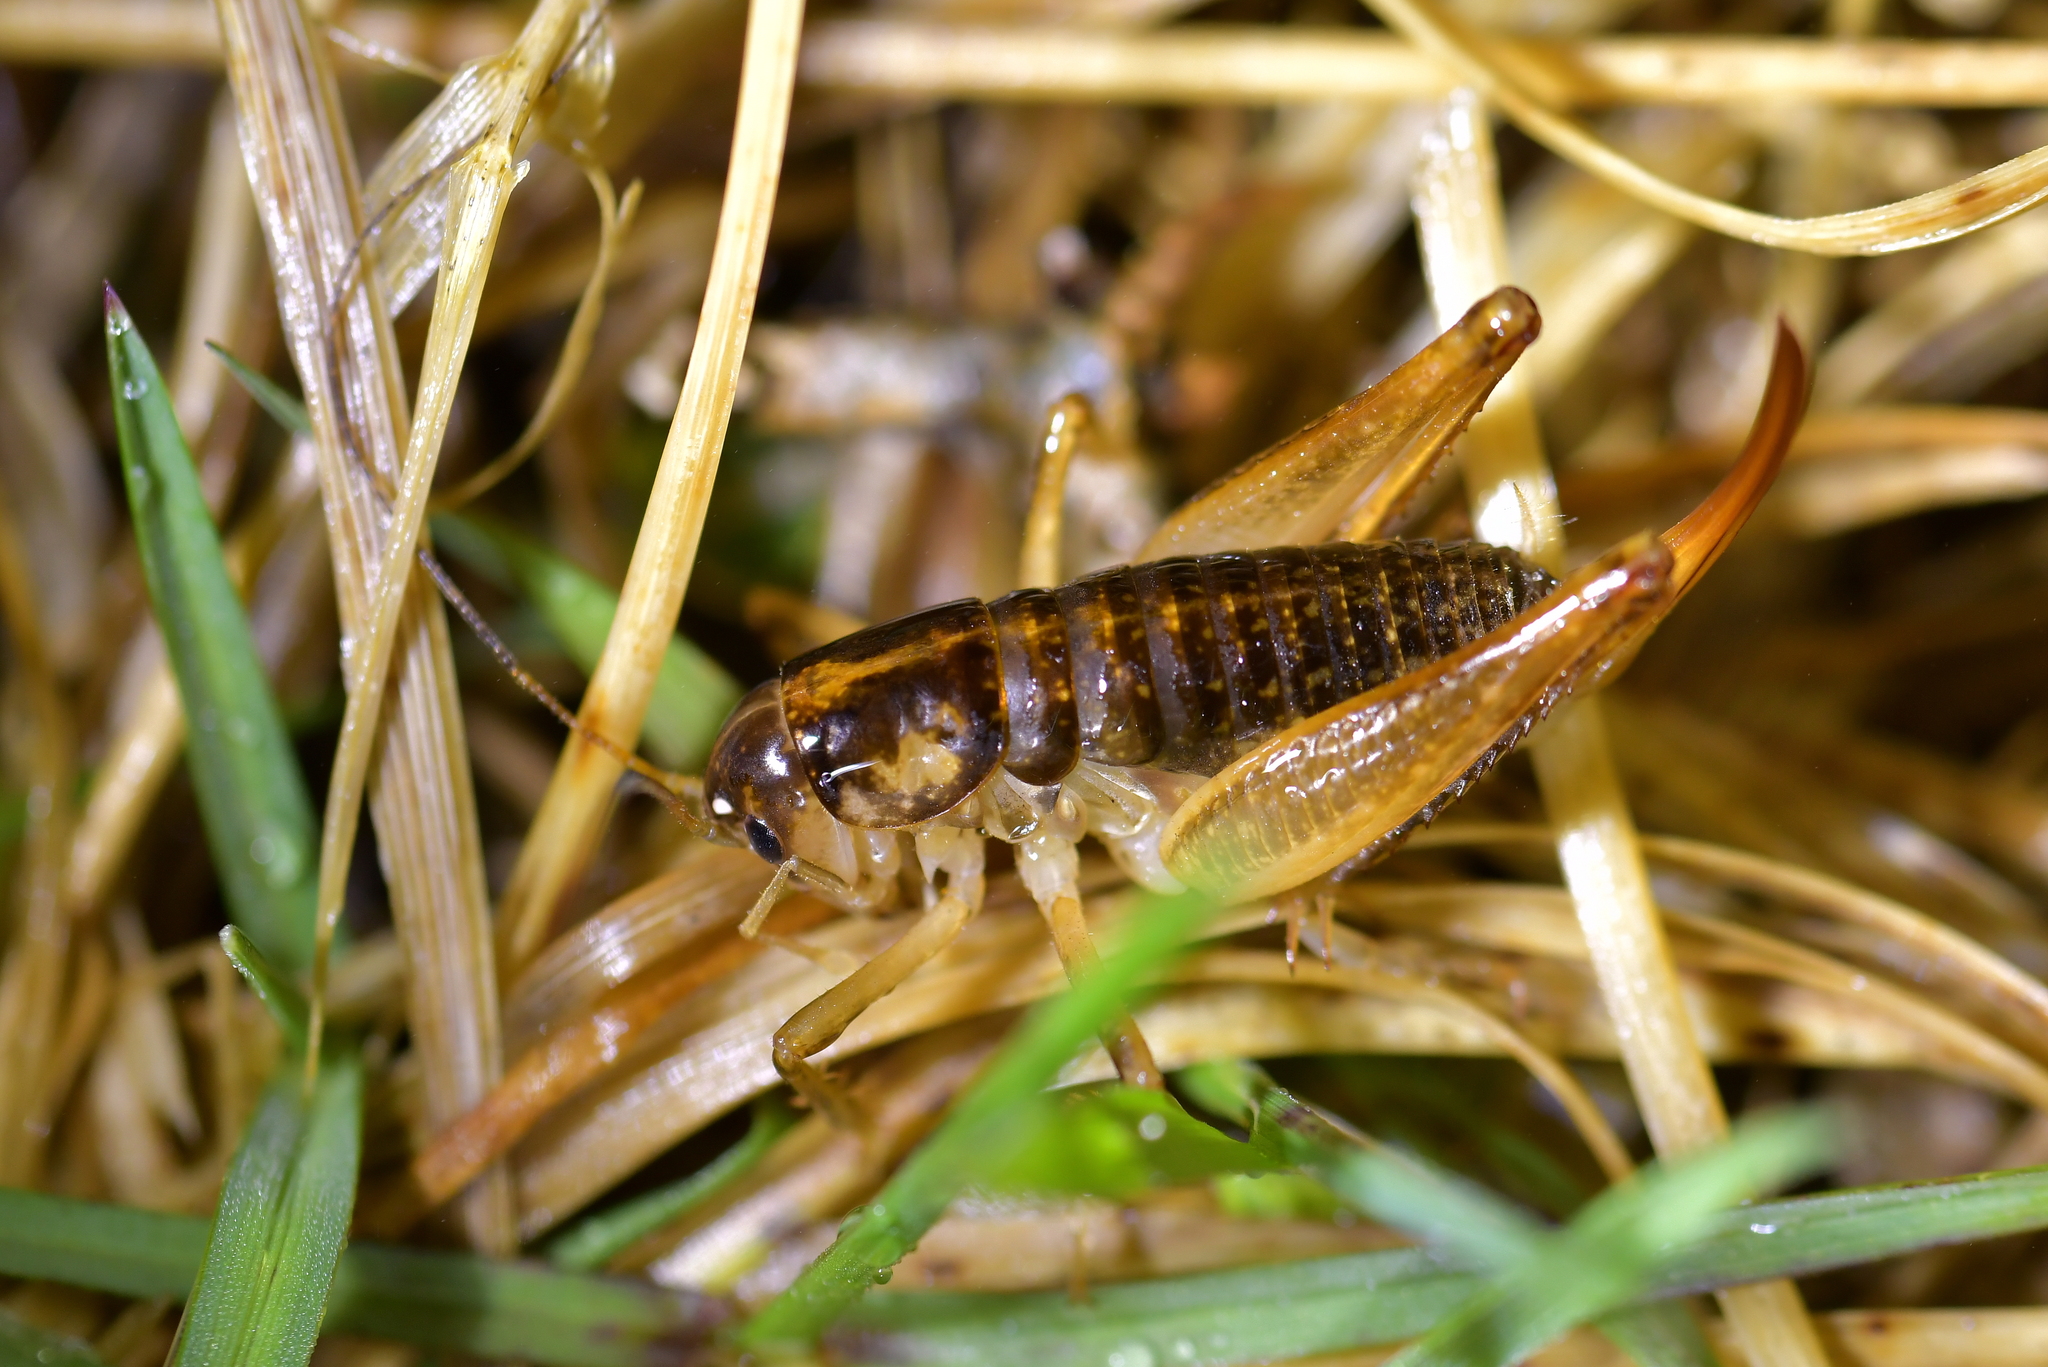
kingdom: Animalia
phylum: Arthropoda
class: Insecta
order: Orthoptera
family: Anostostomatidae
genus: Hemiandrus
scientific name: Hemiandrus maculifrons
